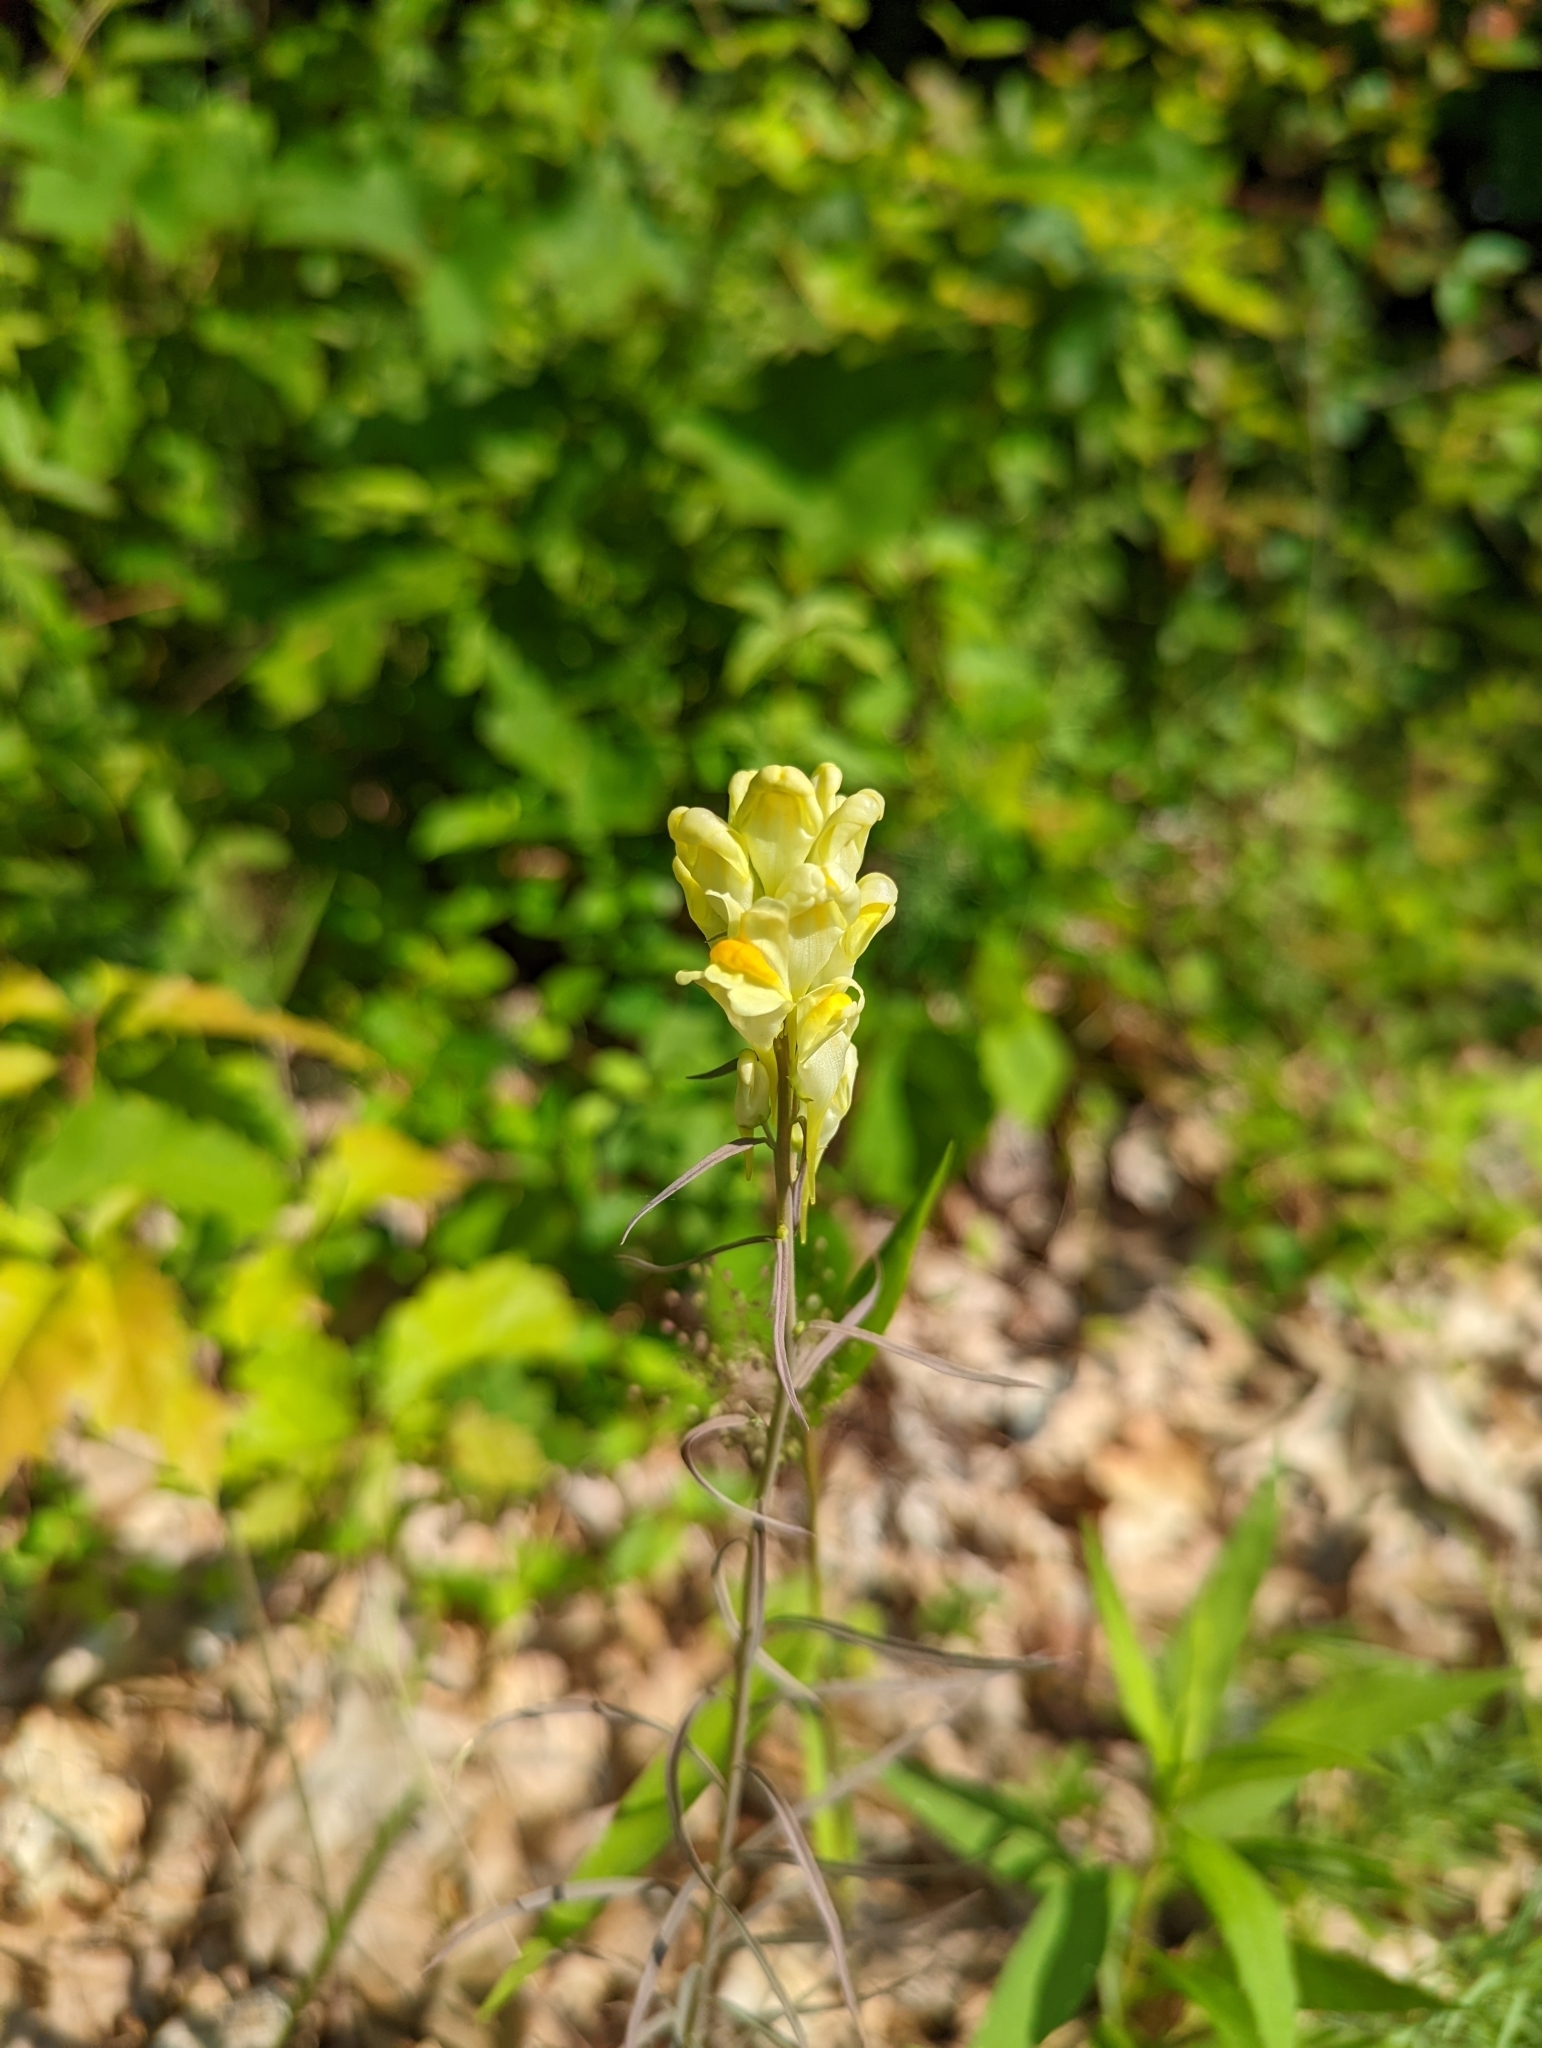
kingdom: Plantae
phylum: Tracheophyta
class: Magnoliopsida
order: Lamiales
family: Plantaginaceae
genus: Linaria
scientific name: Linaria vulgaris
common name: Butter and eggs
